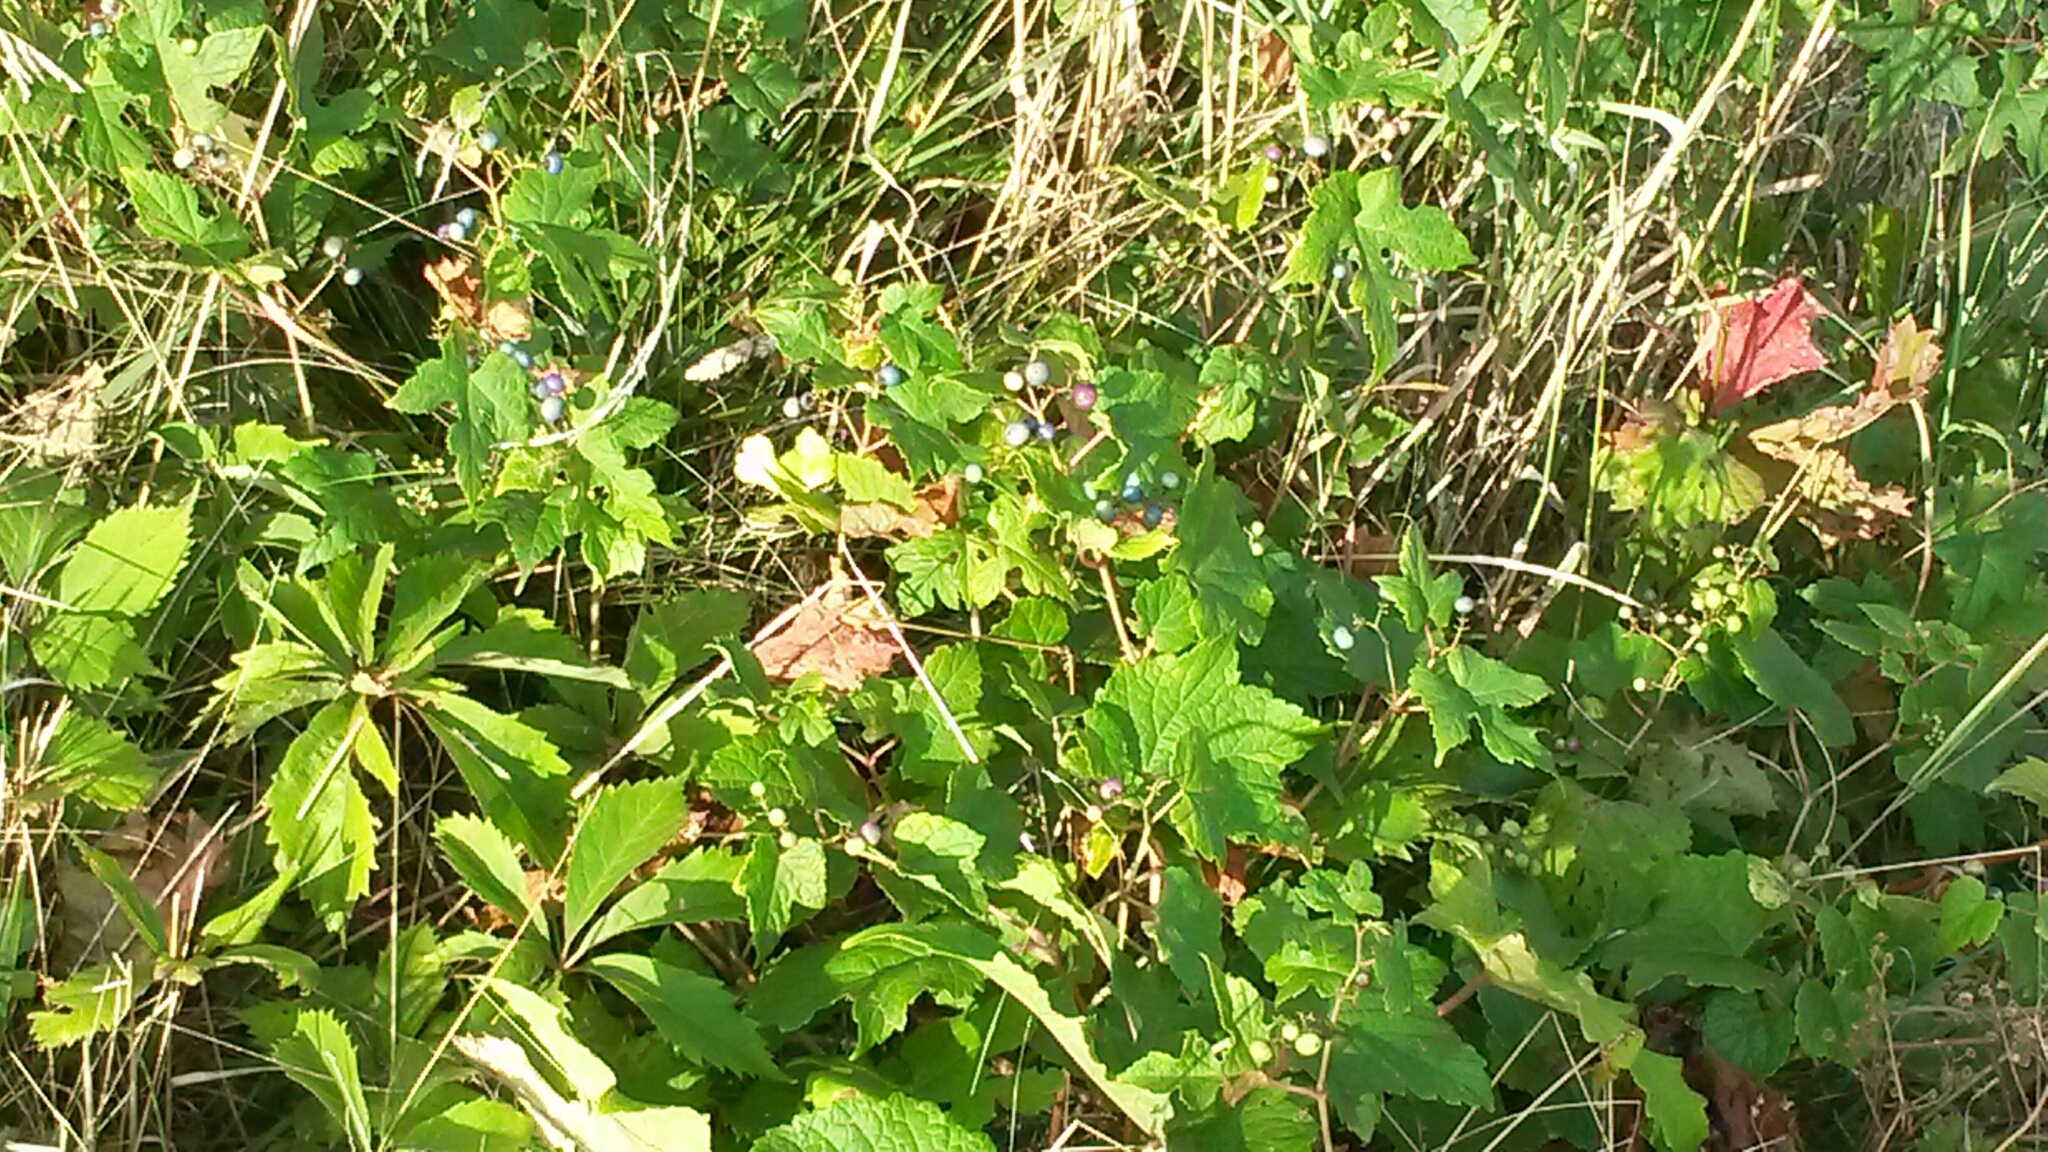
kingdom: Plantae
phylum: Tracheophyta
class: Magnoliopsida
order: Vitales
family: Vitaceae
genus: Ampelopsis
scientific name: Ampelopsis glandulosa
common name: Amur peppervine
